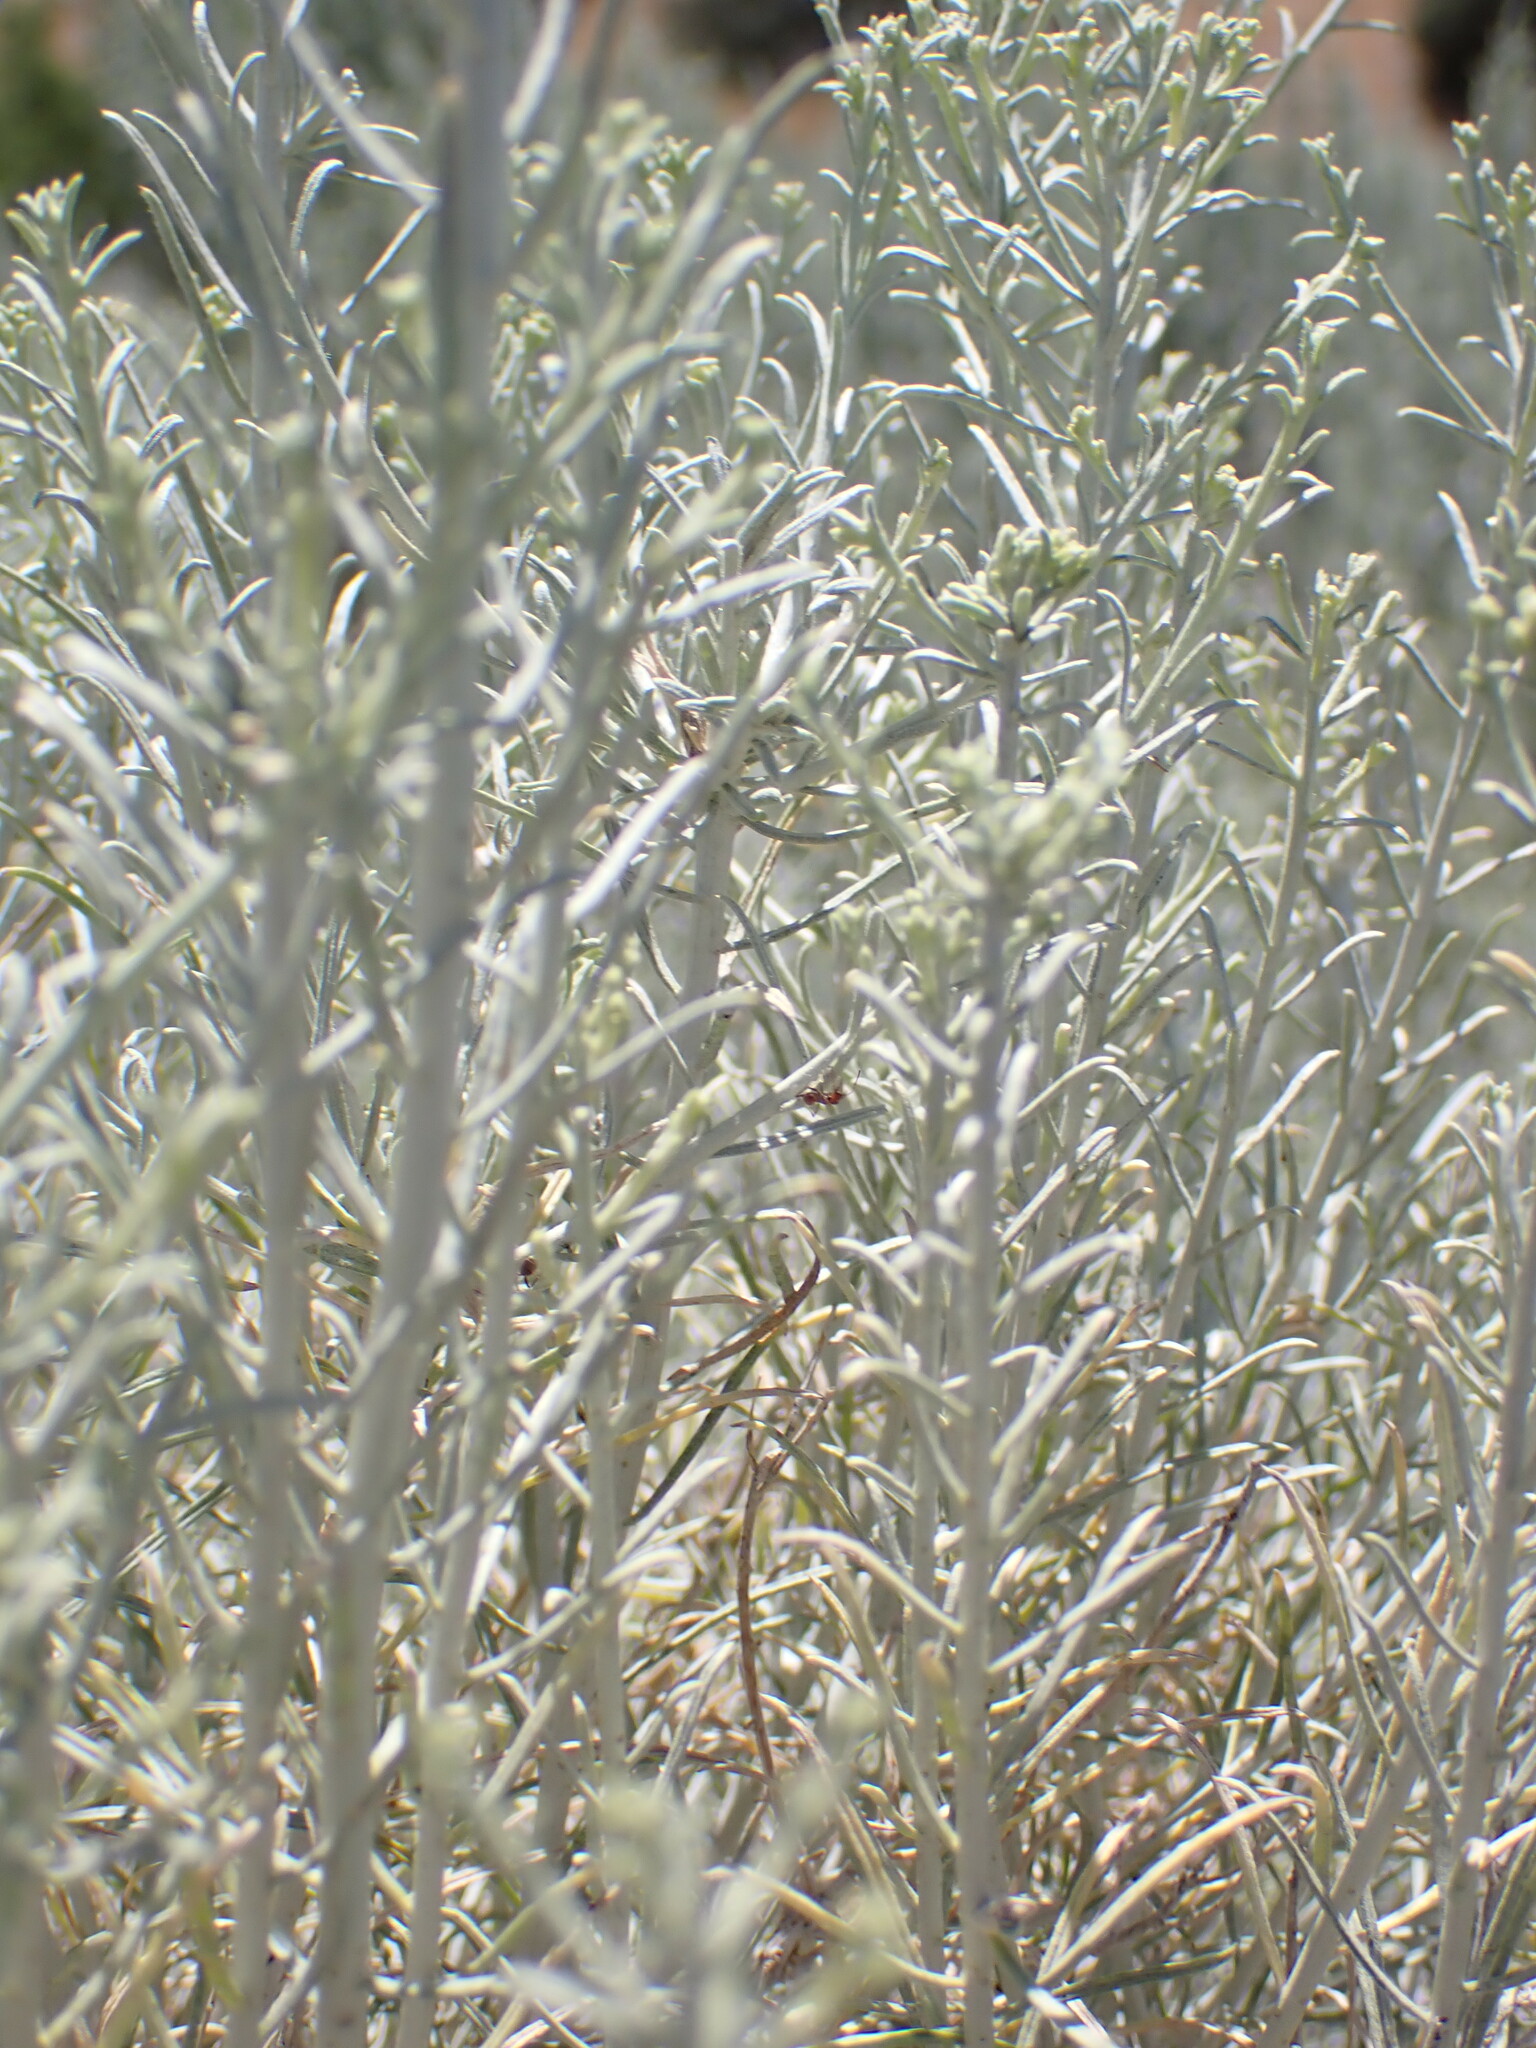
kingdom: Plantae
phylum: Tracheophyta
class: Magnoliopsida
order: Asterales
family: Asteraceae
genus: Ericameria
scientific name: Ericameria nauseosa
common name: Rubber rabbitbrush
